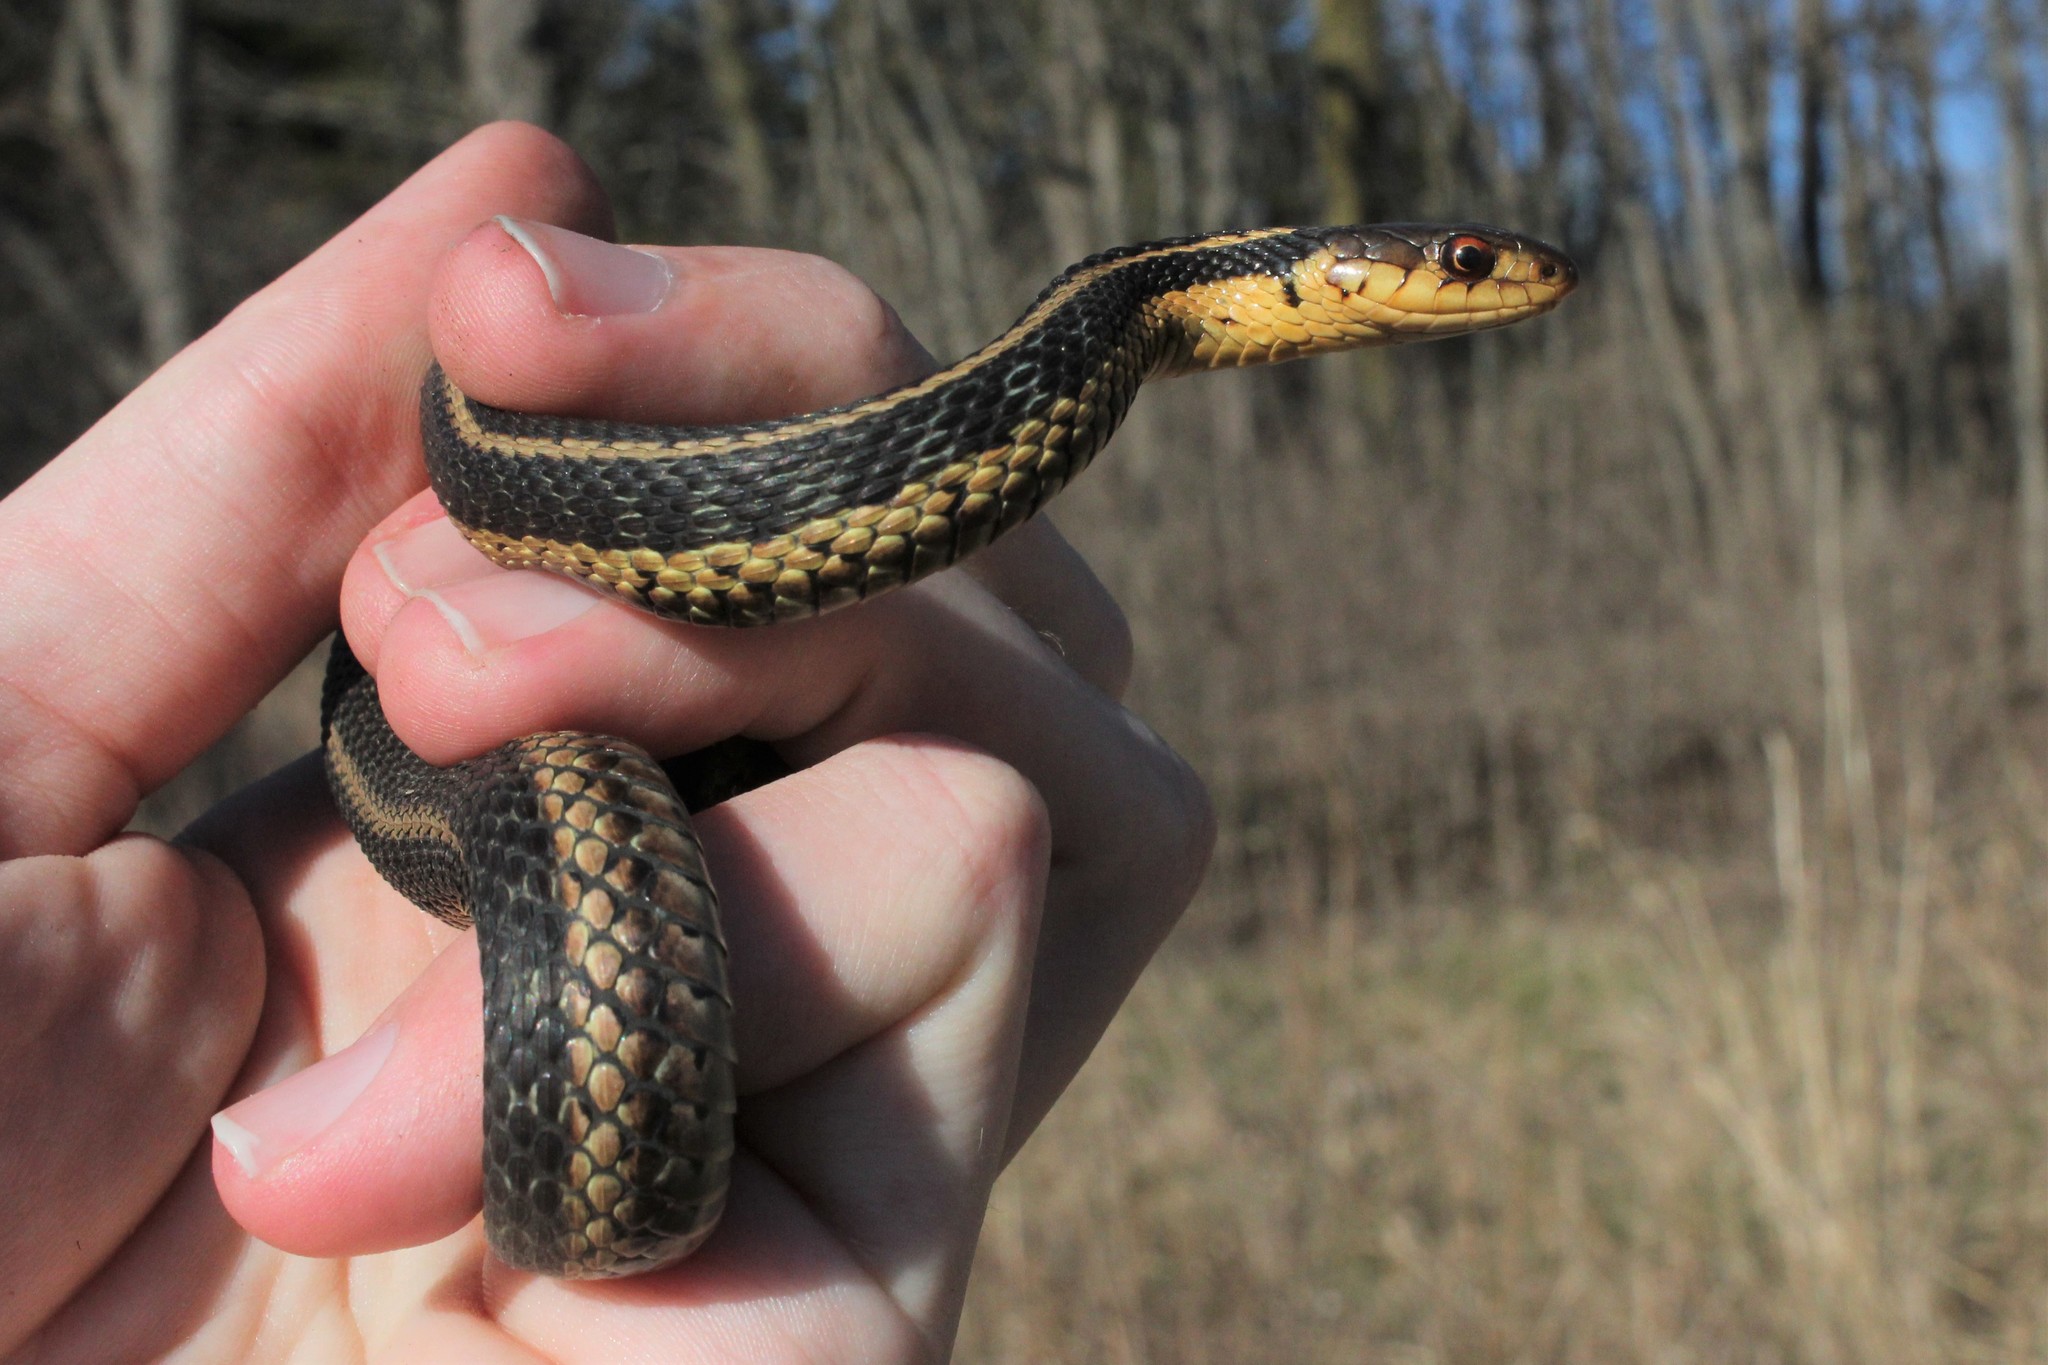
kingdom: Animalia
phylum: Chordata
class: Squamata
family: Colubridae
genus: Thamnophis
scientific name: Thamnophis sirtalis
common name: Common garter snake
